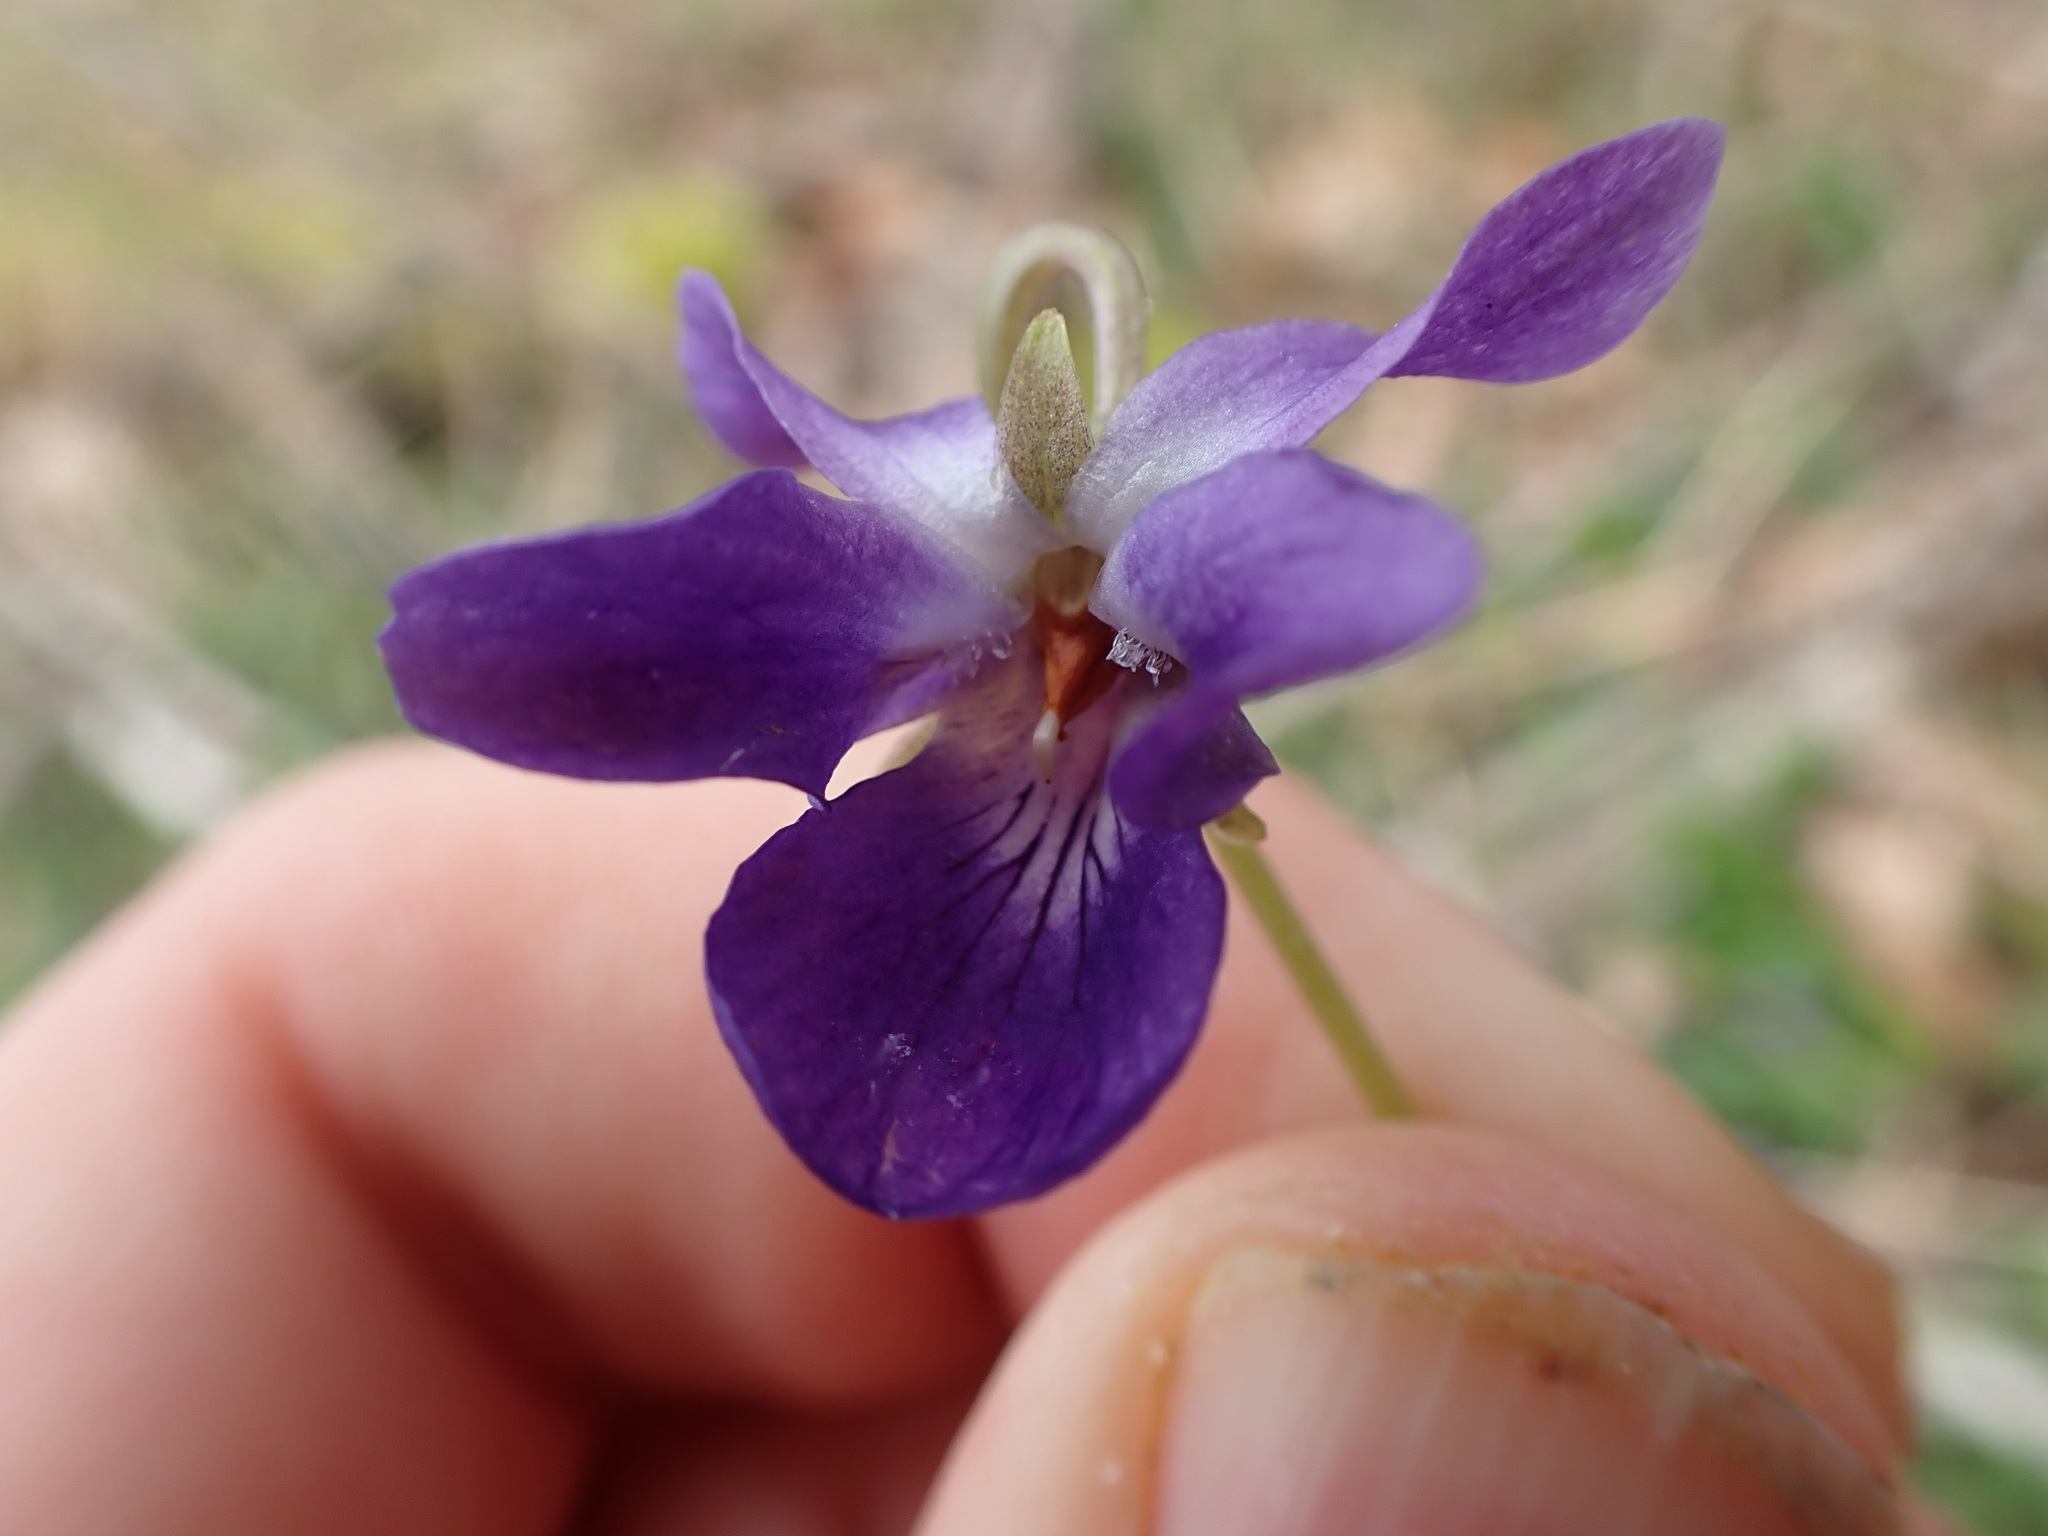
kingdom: Plantae
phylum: Tracheophyta
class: Magnoliopsida
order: Malpighiales
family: Violaceae
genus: Viola
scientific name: Viola odorata
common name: Sweet violet
